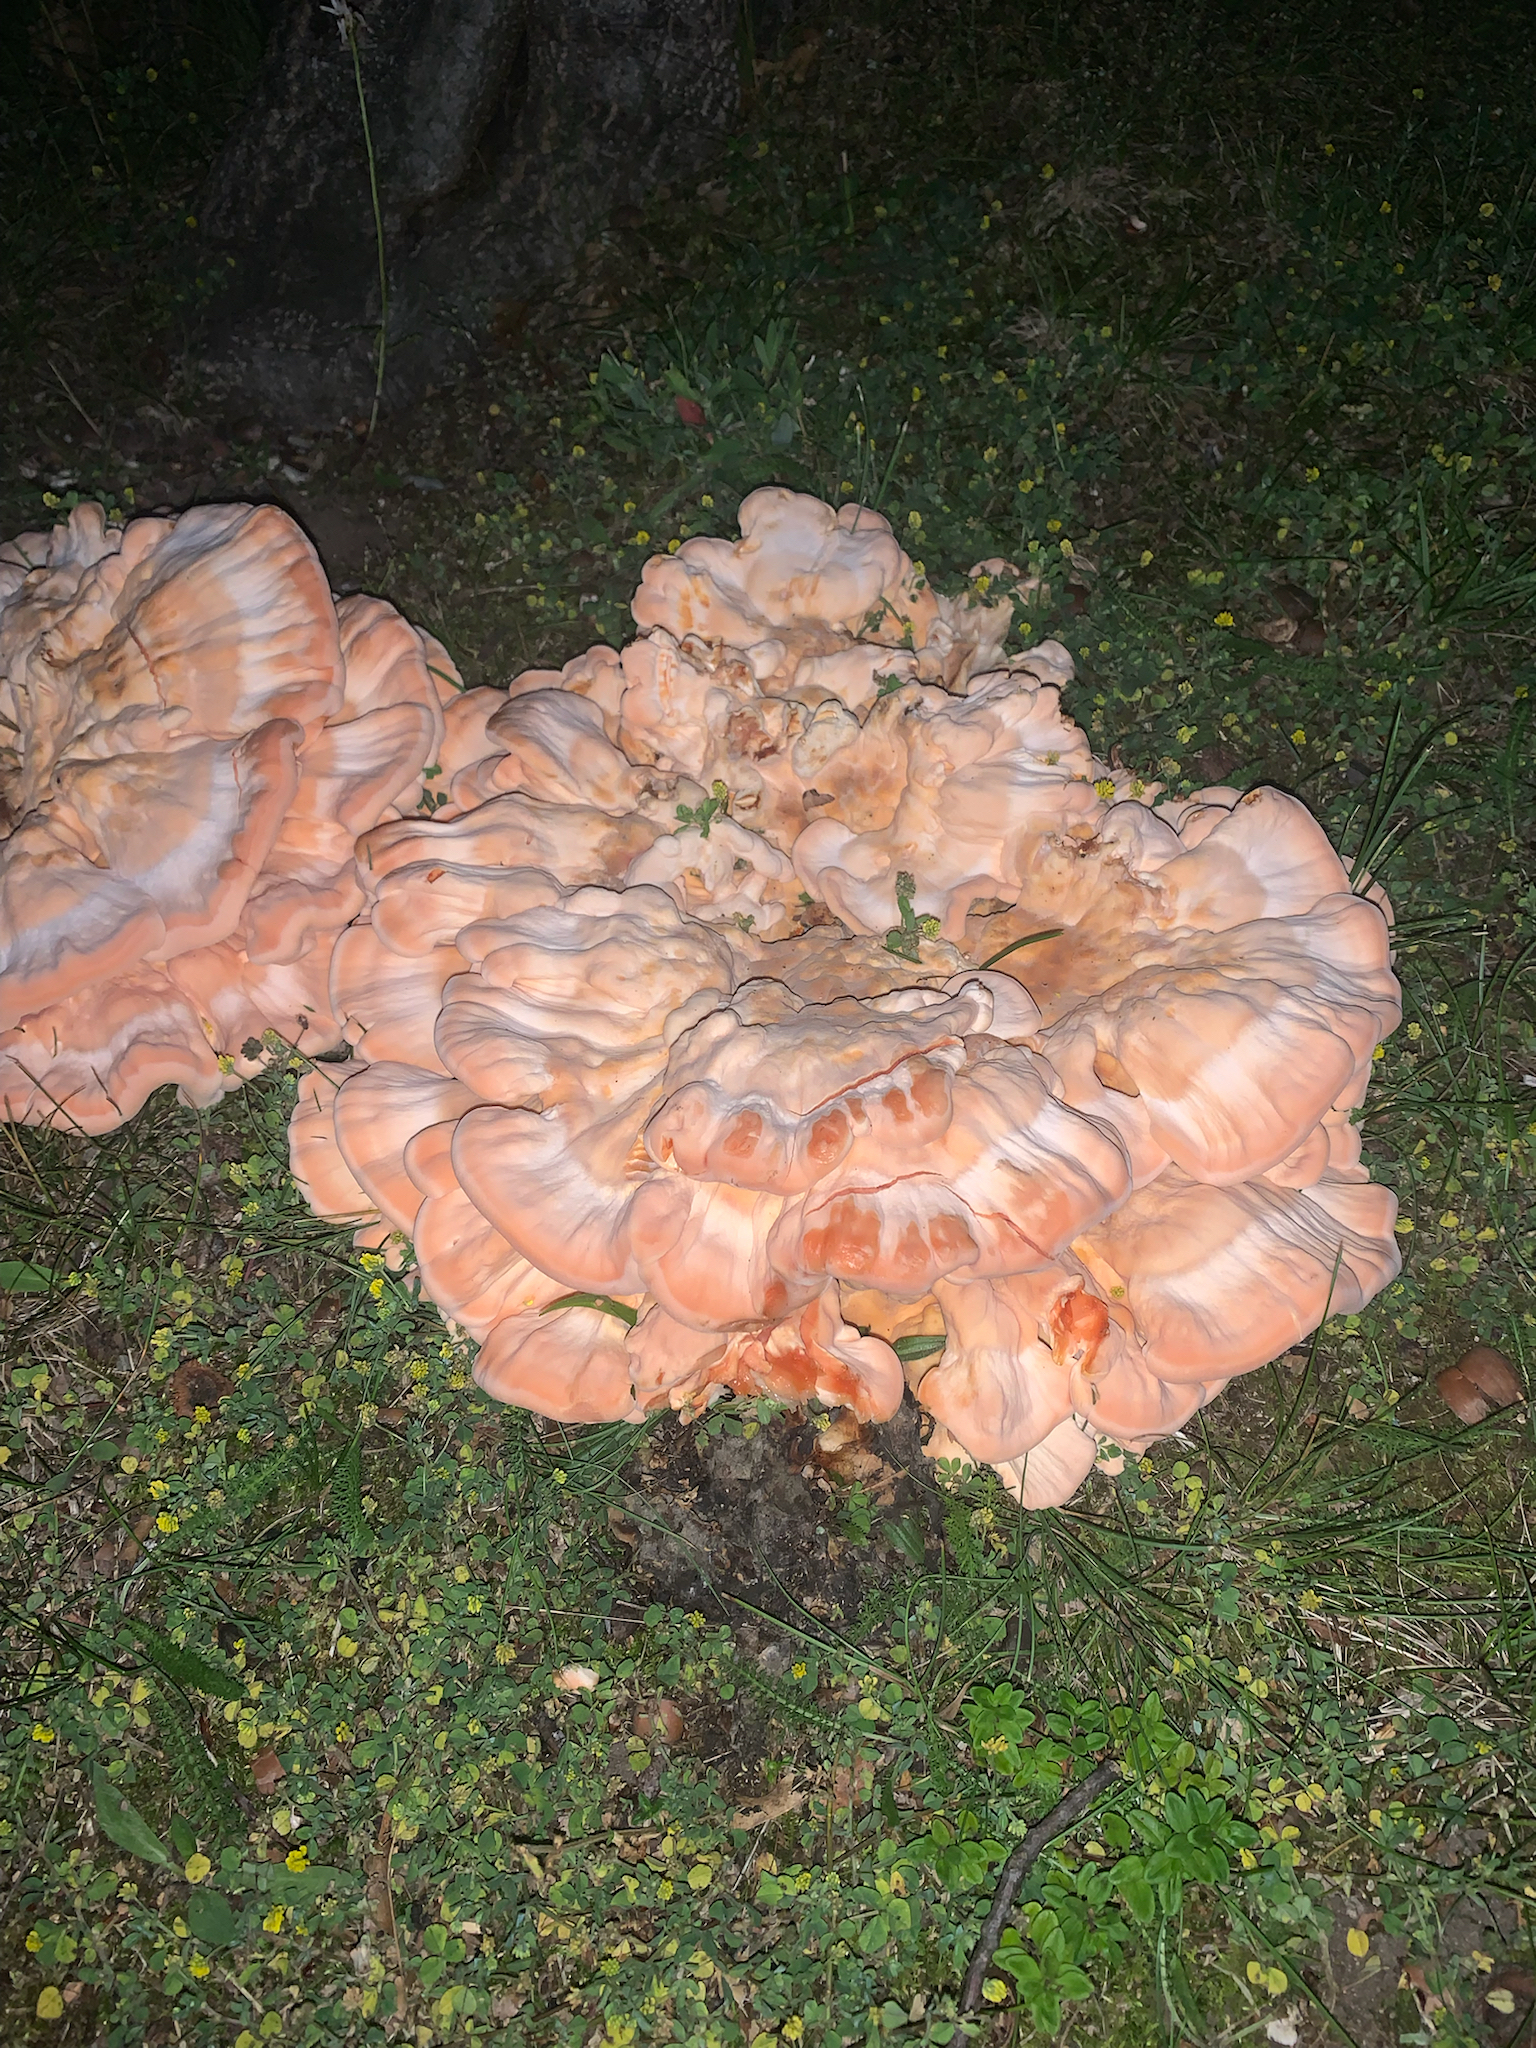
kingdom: Fungi
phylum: Basidiomycota
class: Agaricomycetes
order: Polyporales
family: Laetiporaceae
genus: Laetiporus
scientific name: Laetiporus sulphureus
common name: Chicken of the woods
